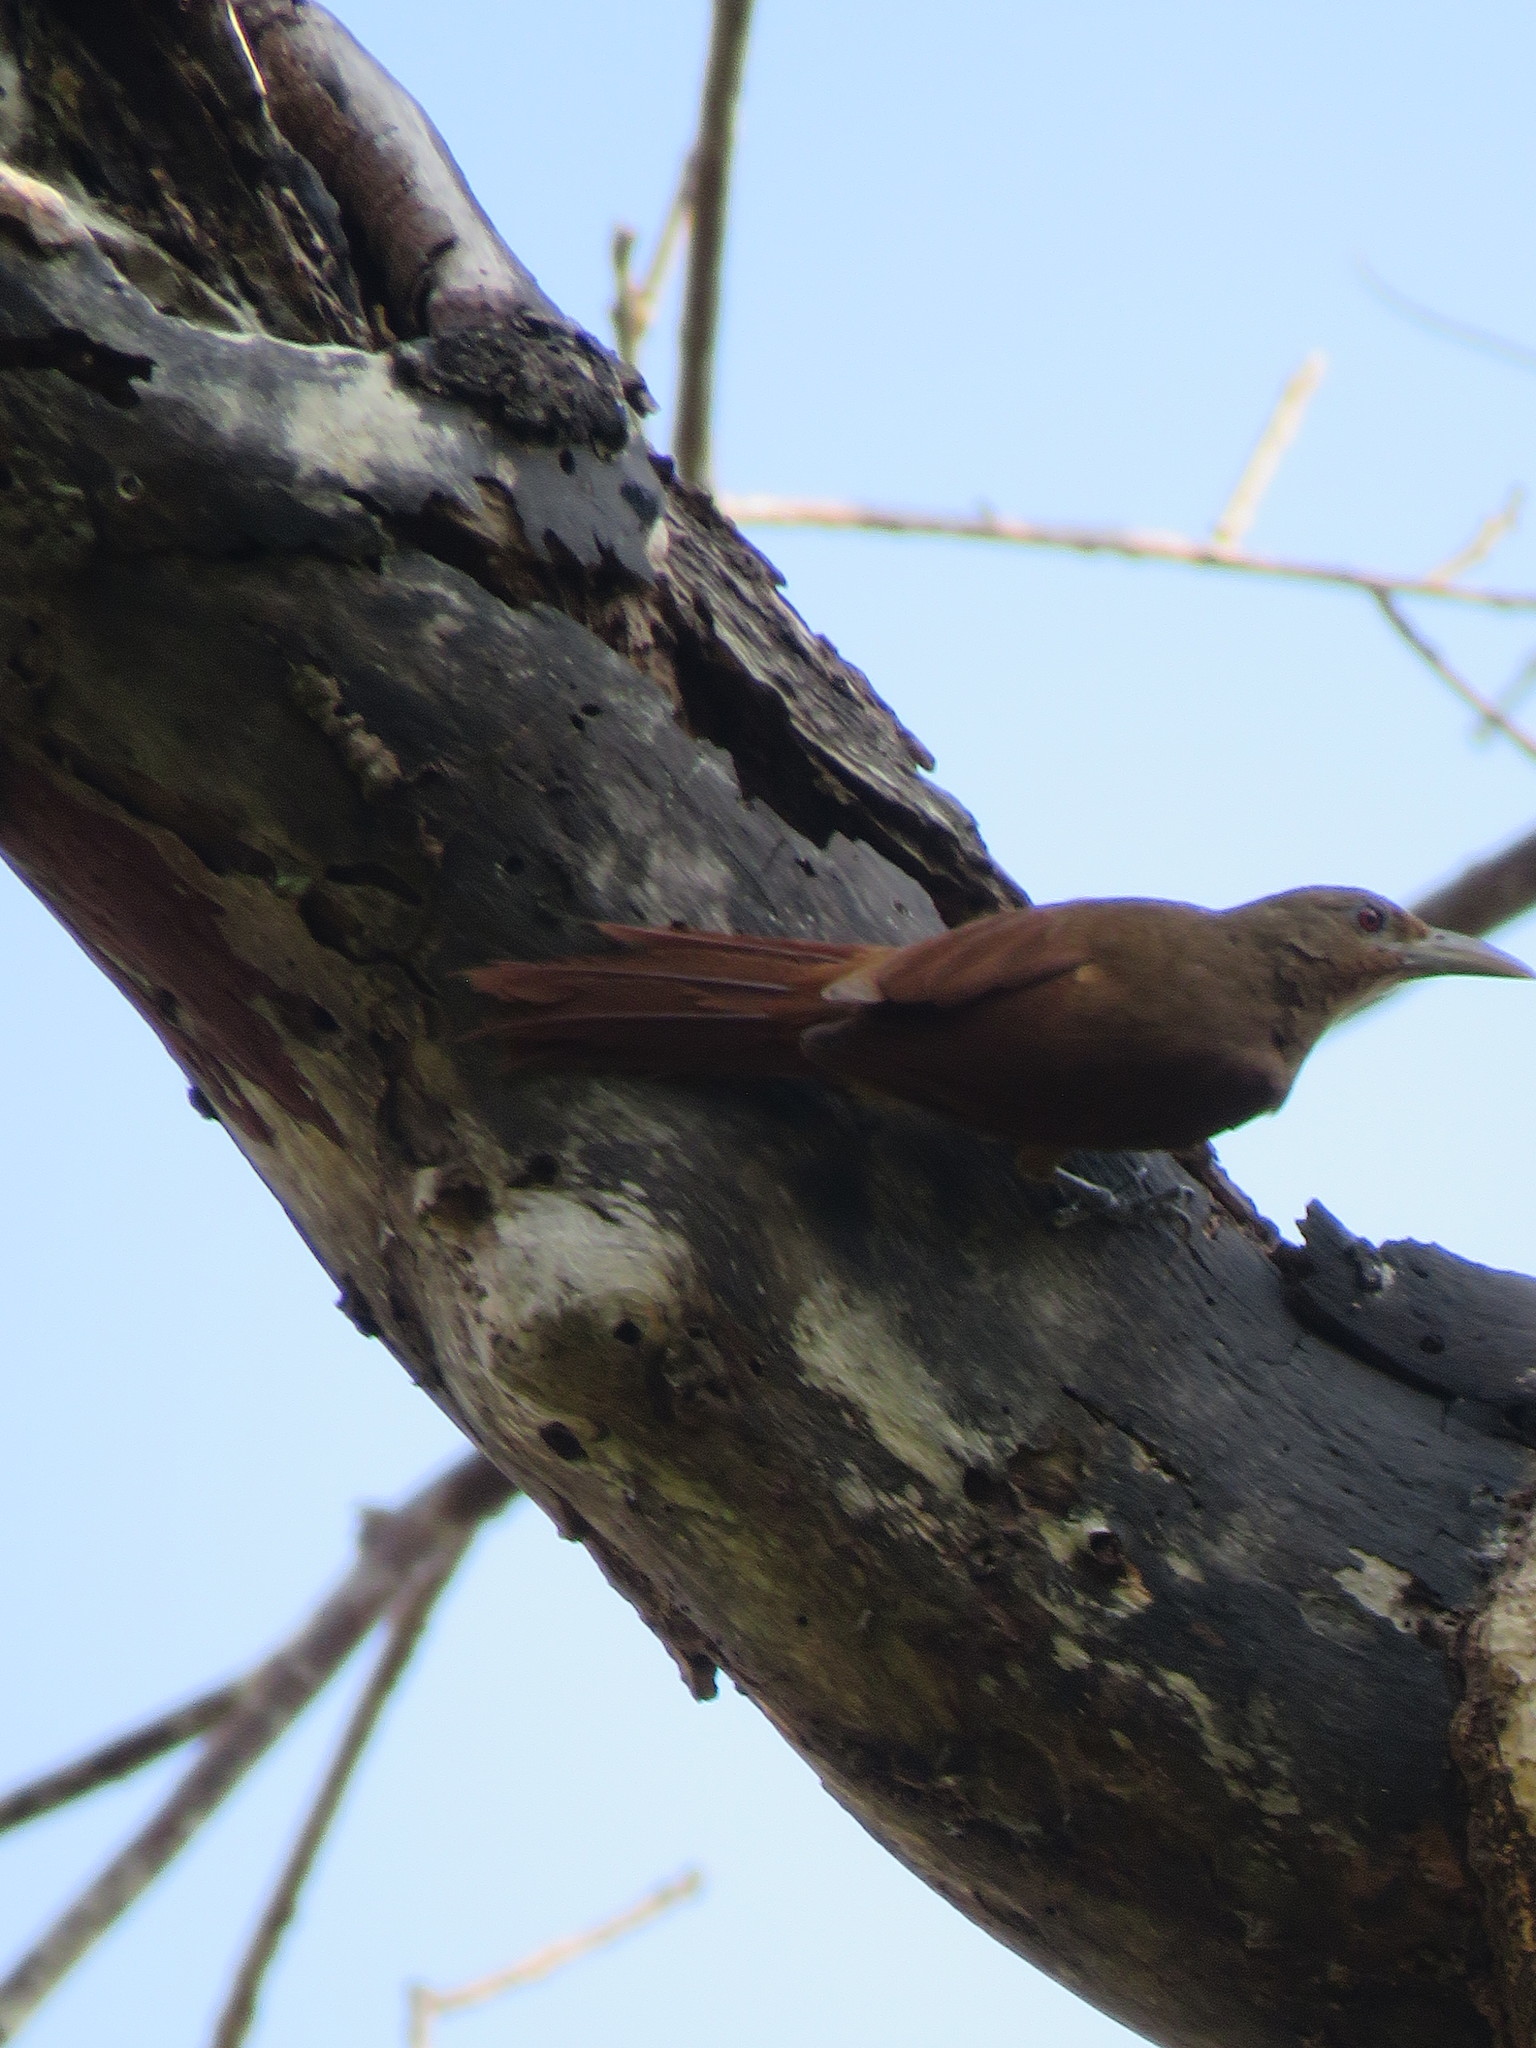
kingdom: Animalia
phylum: Chordata
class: Aves
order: Passeriformes
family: Furnariidae
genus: Dendrexetastes
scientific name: Dendrexetastes rufigula
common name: Cinnamon-throated woodcreeper
